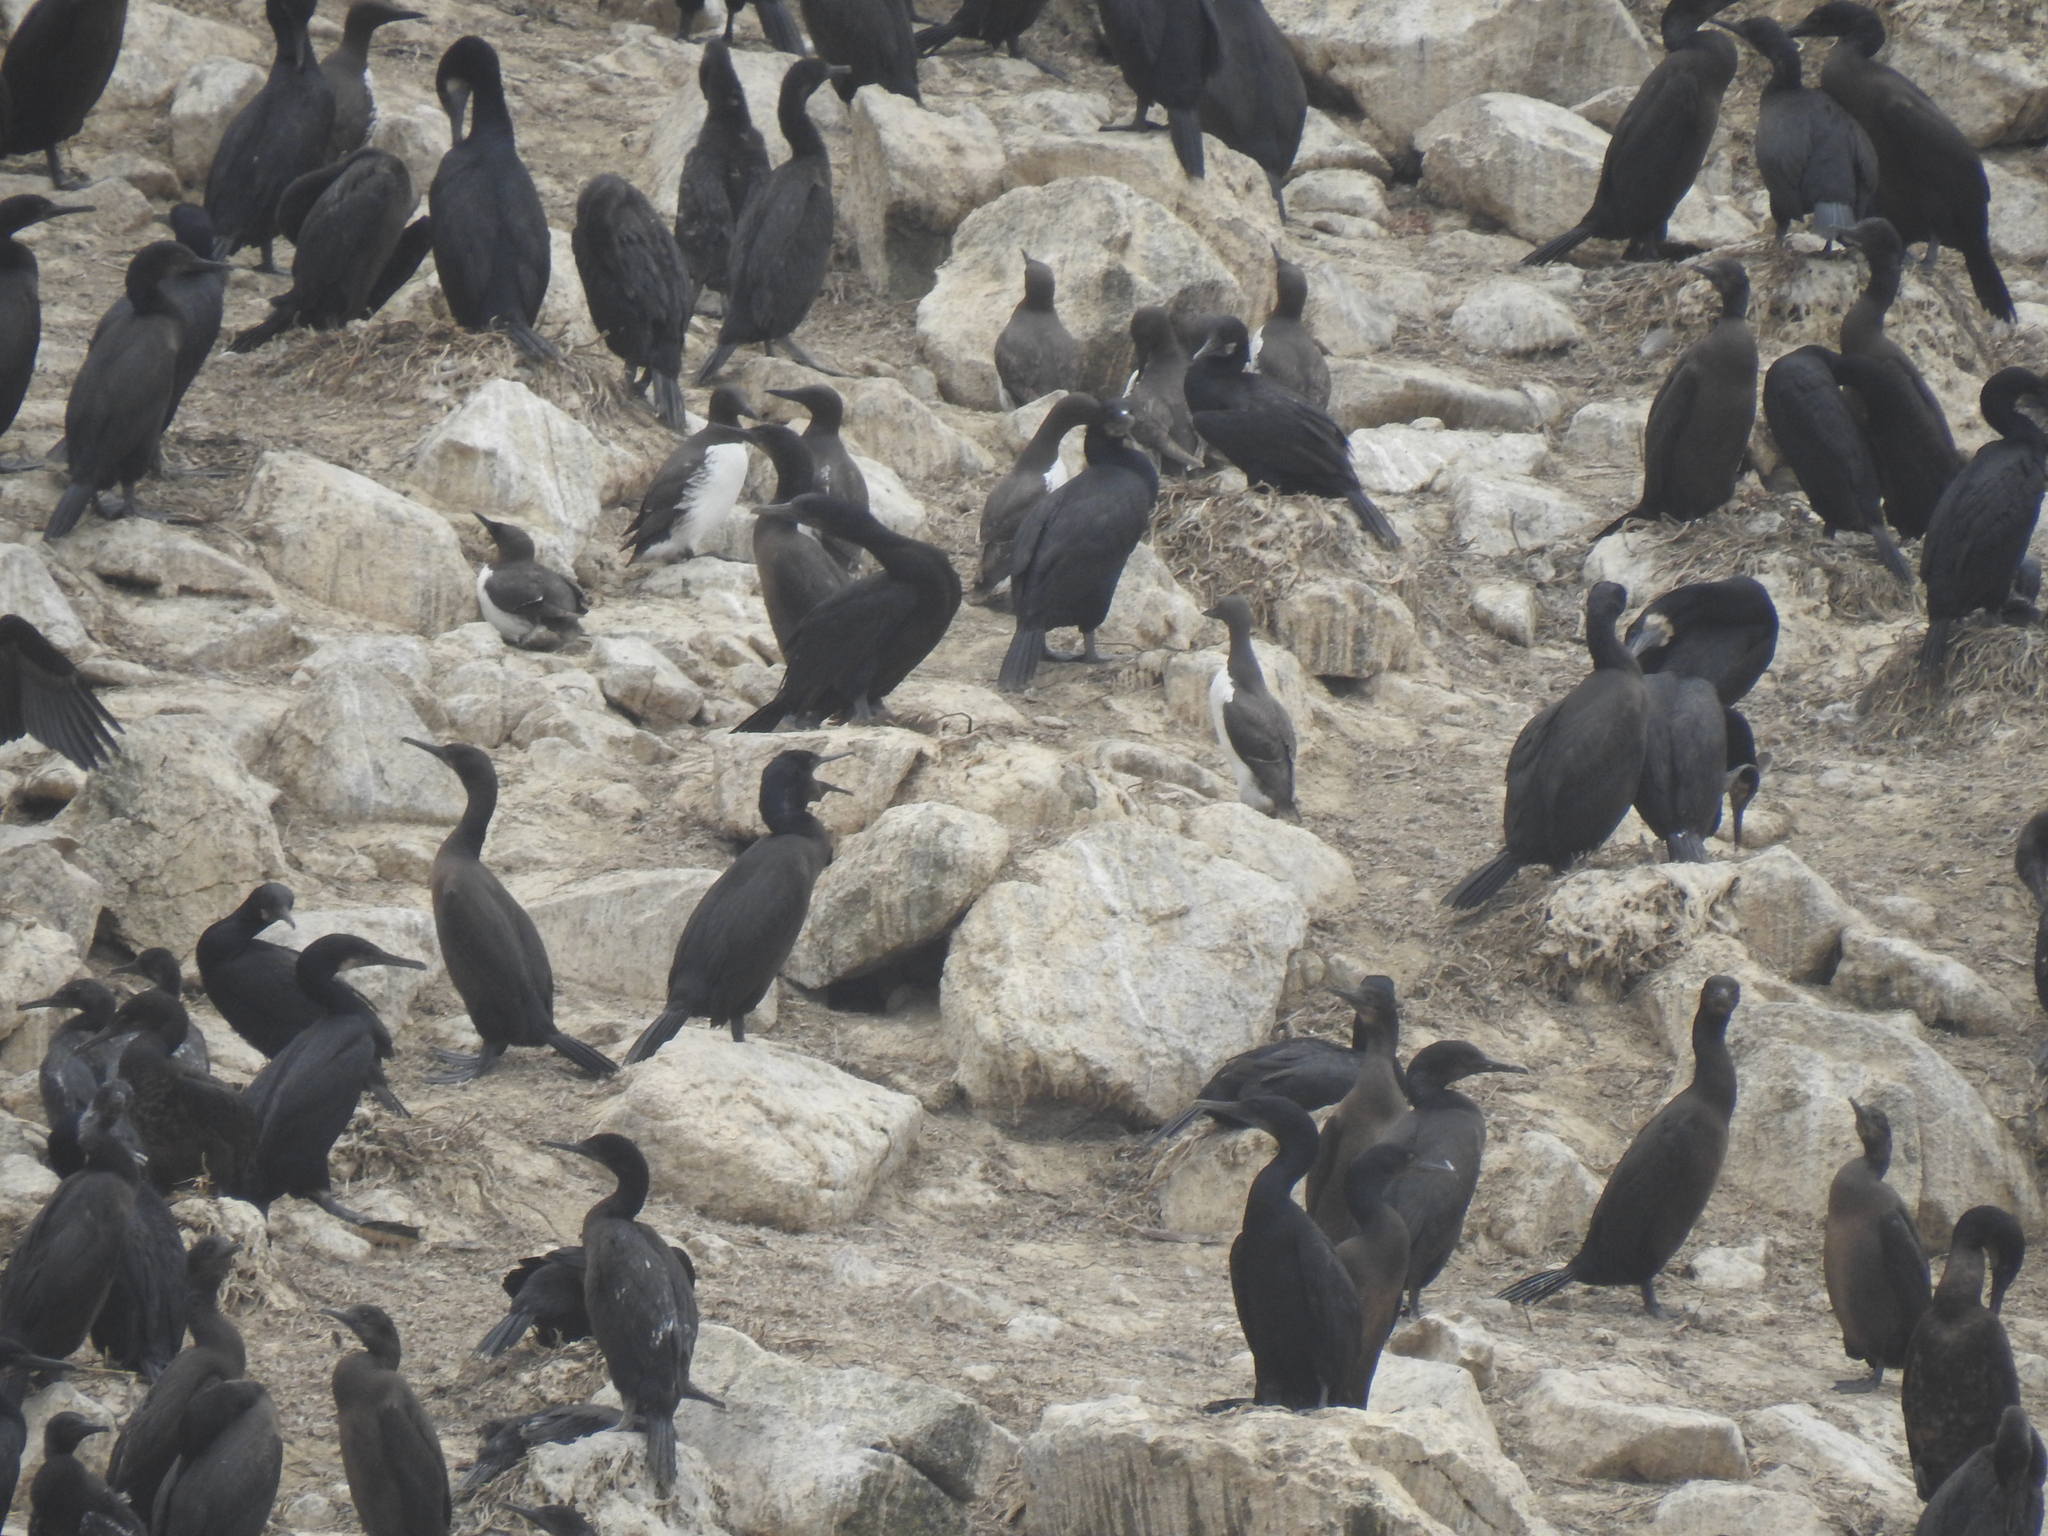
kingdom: Animalia
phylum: Chordata
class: Aves
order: Charadriiformes
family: Alcidae
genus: Uria
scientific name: Uria aalge
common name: Common murre
